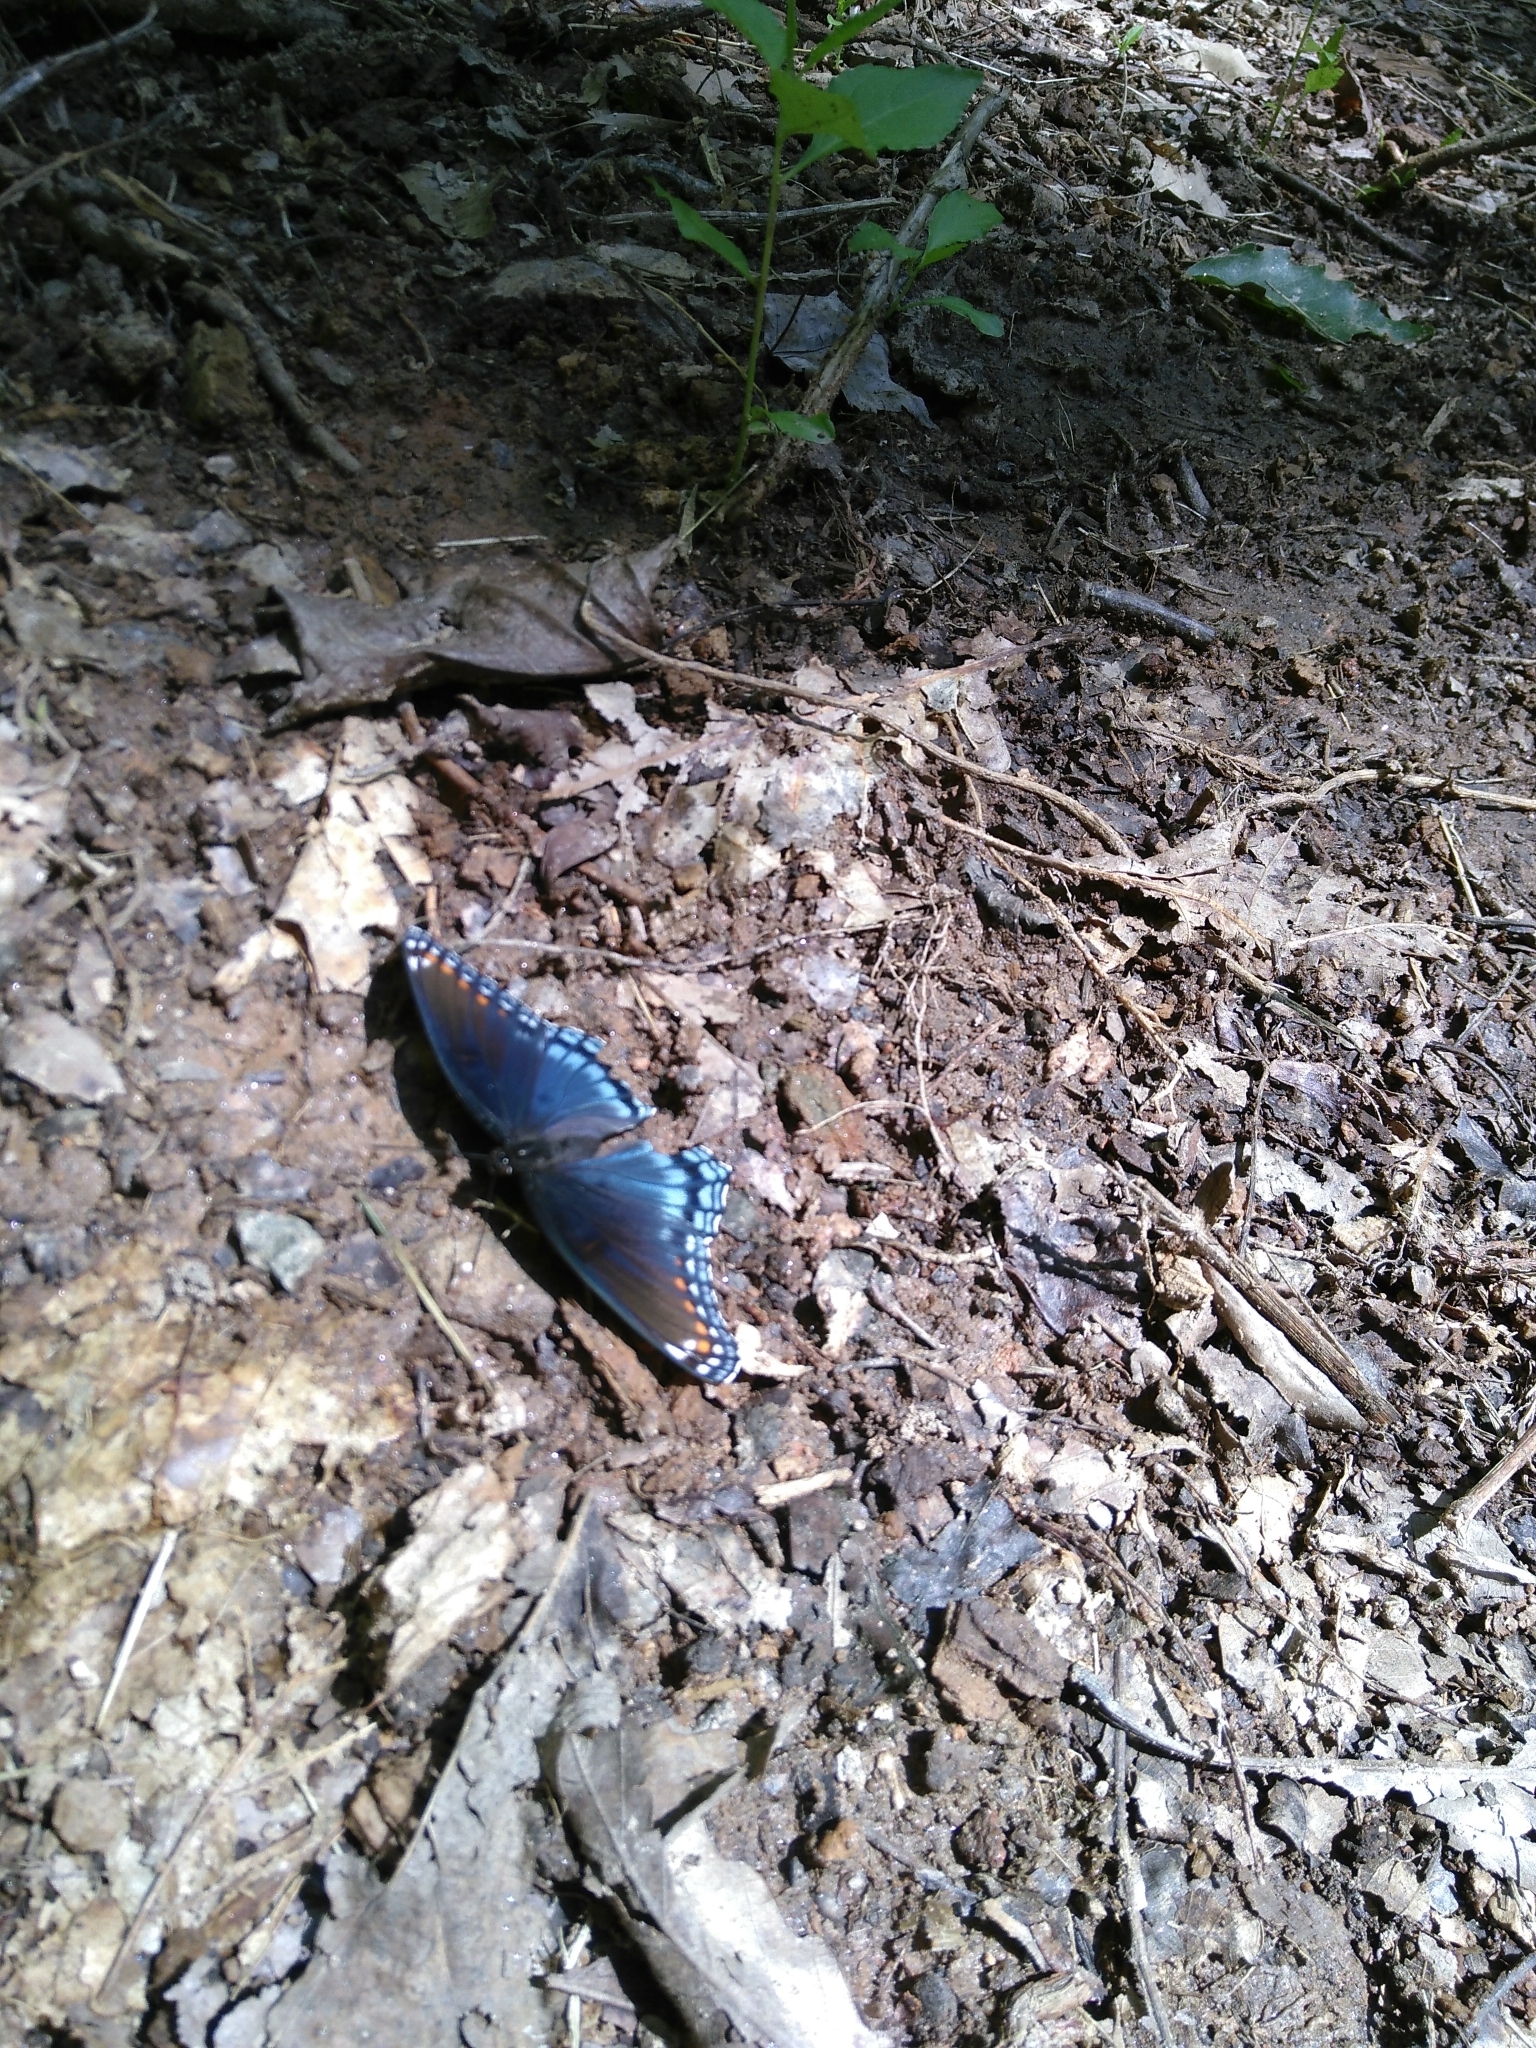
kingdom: Animalia
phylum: Arthropoda
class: Insecta
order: Lepidoptera
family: Nymphalidae
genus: Limenitis
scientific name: Limenitis astyanax
